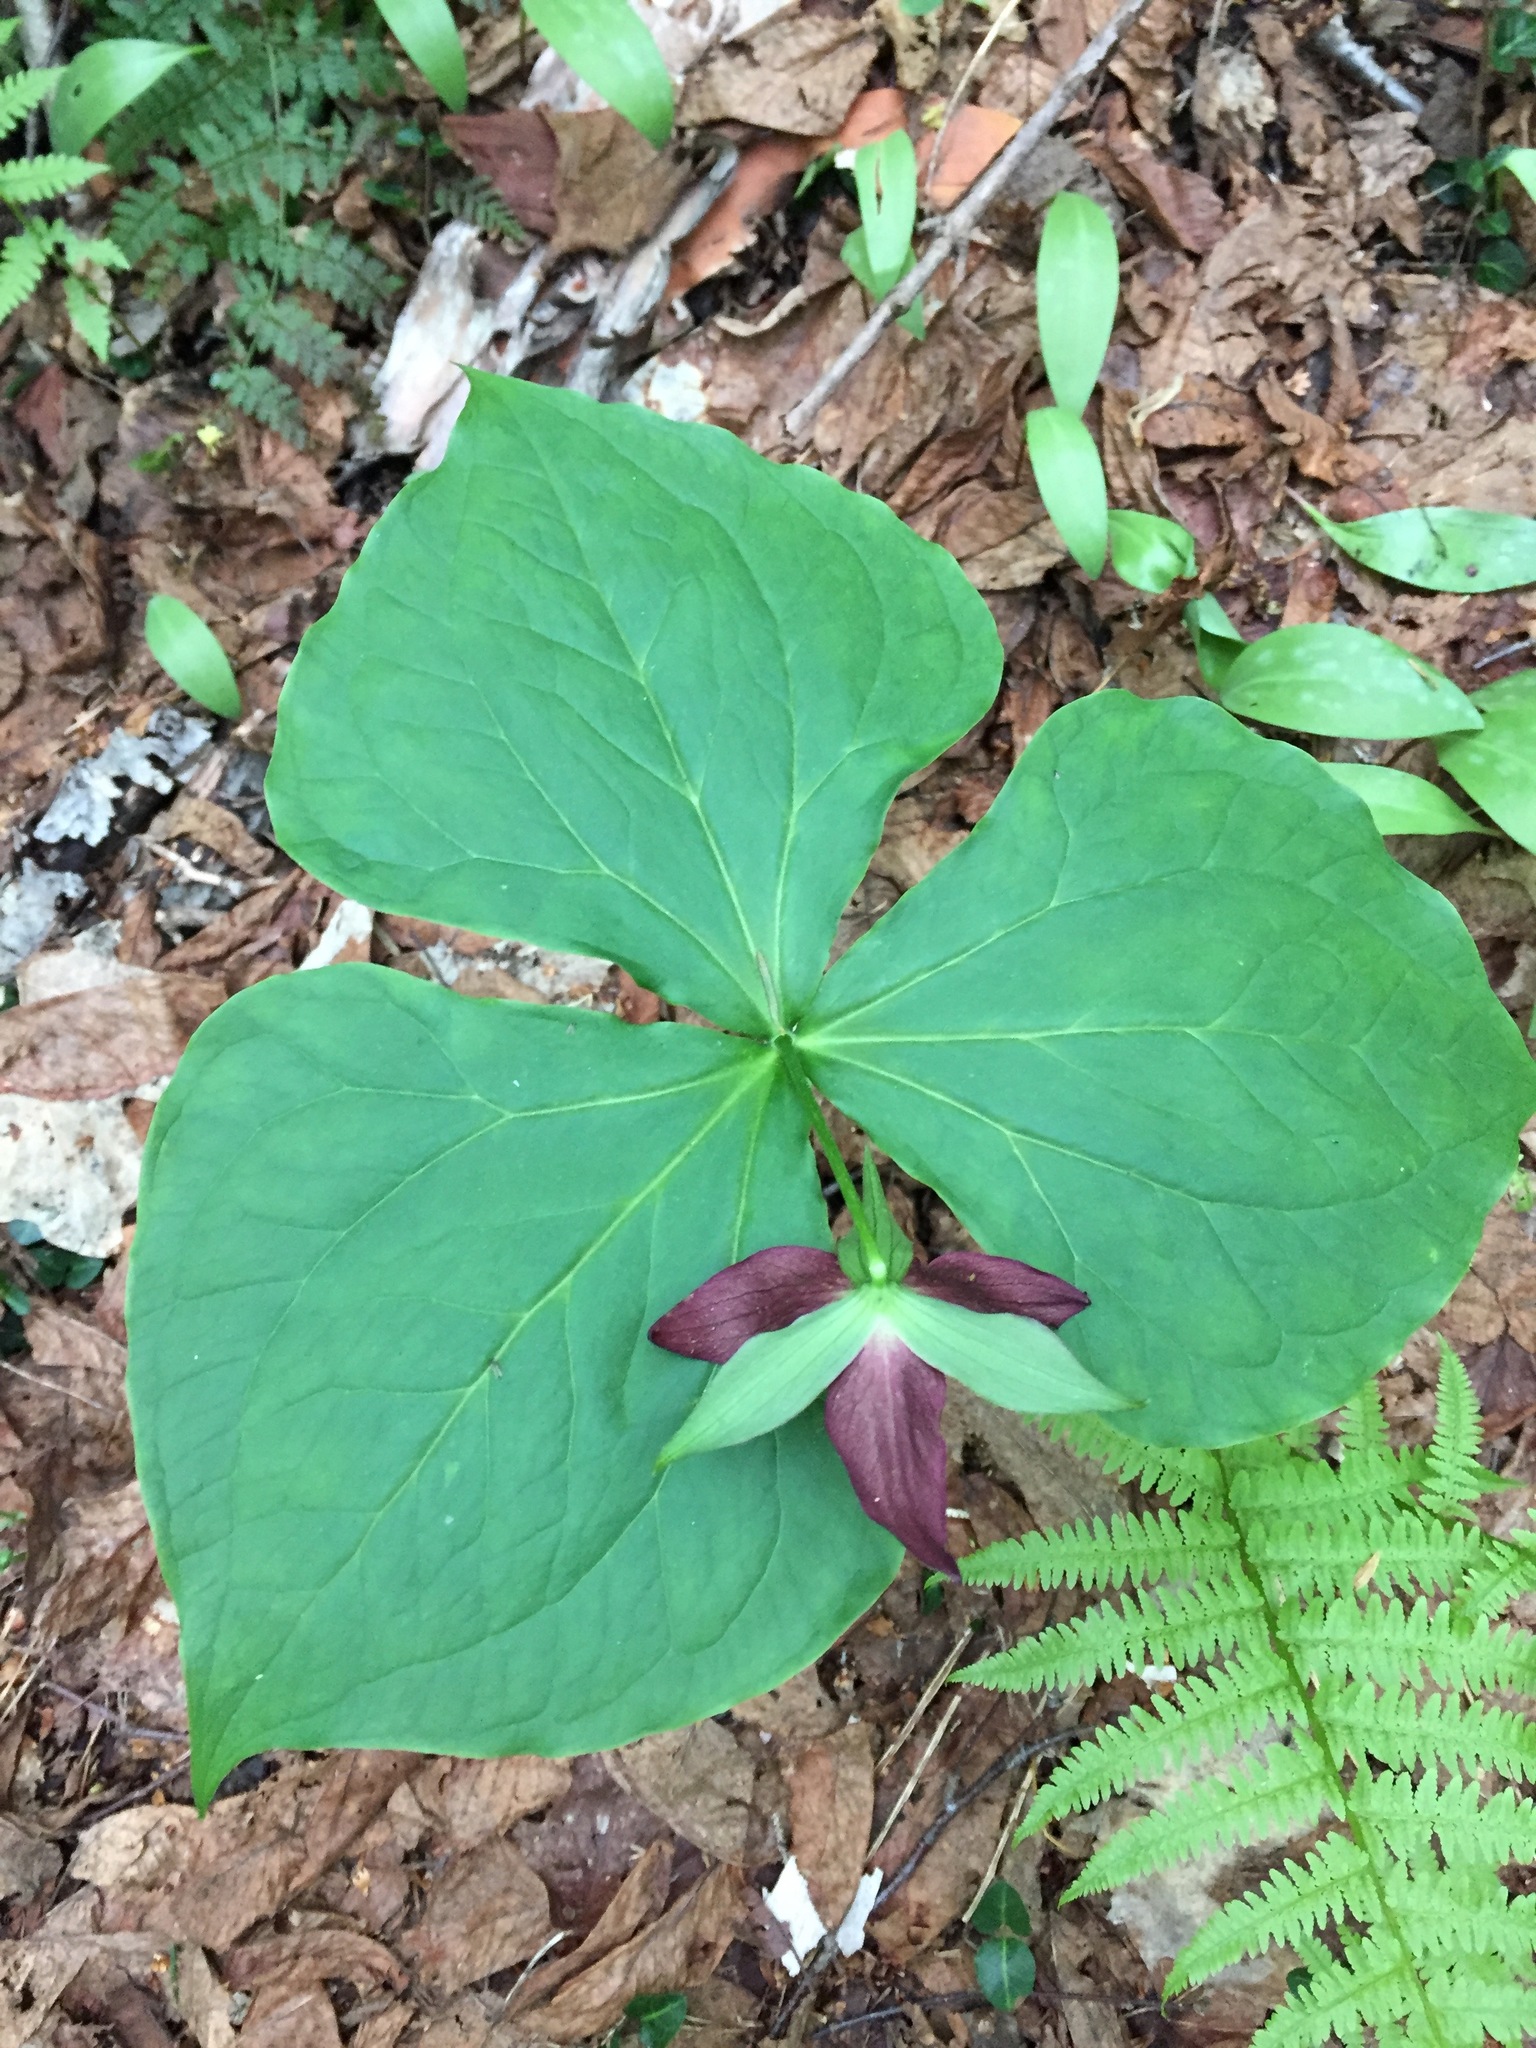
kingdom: Plantae
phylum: Tracheophyta
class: Liliopsida
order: Liliales
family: Melanthiaceae
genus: Trillium
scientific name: Trillium erectum
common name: Purple trillium
